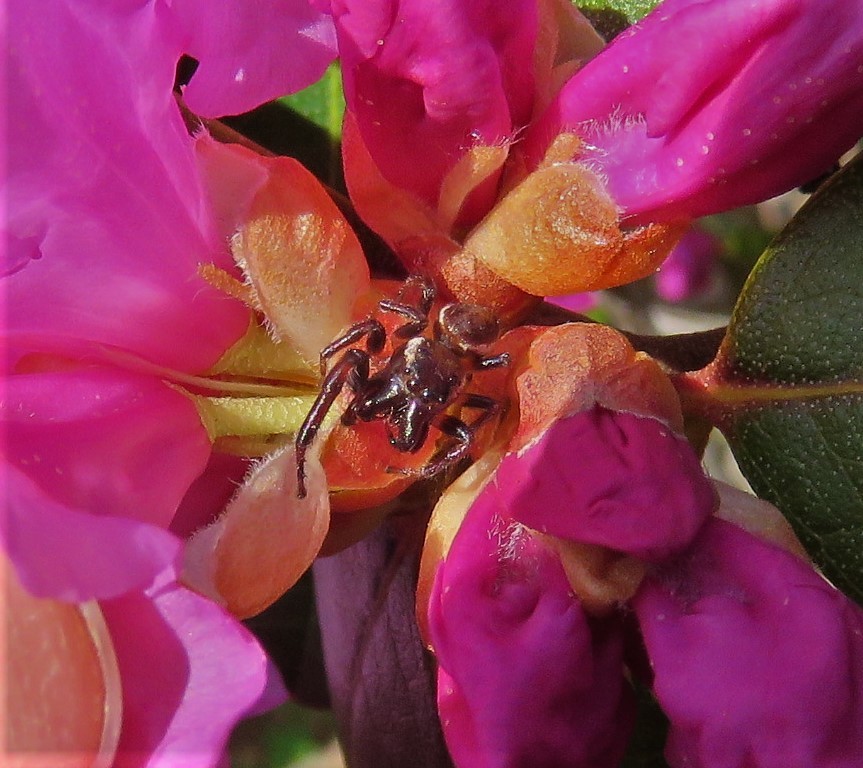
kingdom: Animalia
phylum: Arthropoda
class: Arachnida
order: Araneae
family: Salticidae
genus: Eris
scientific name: Eris militaris
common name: Bronze jumper
